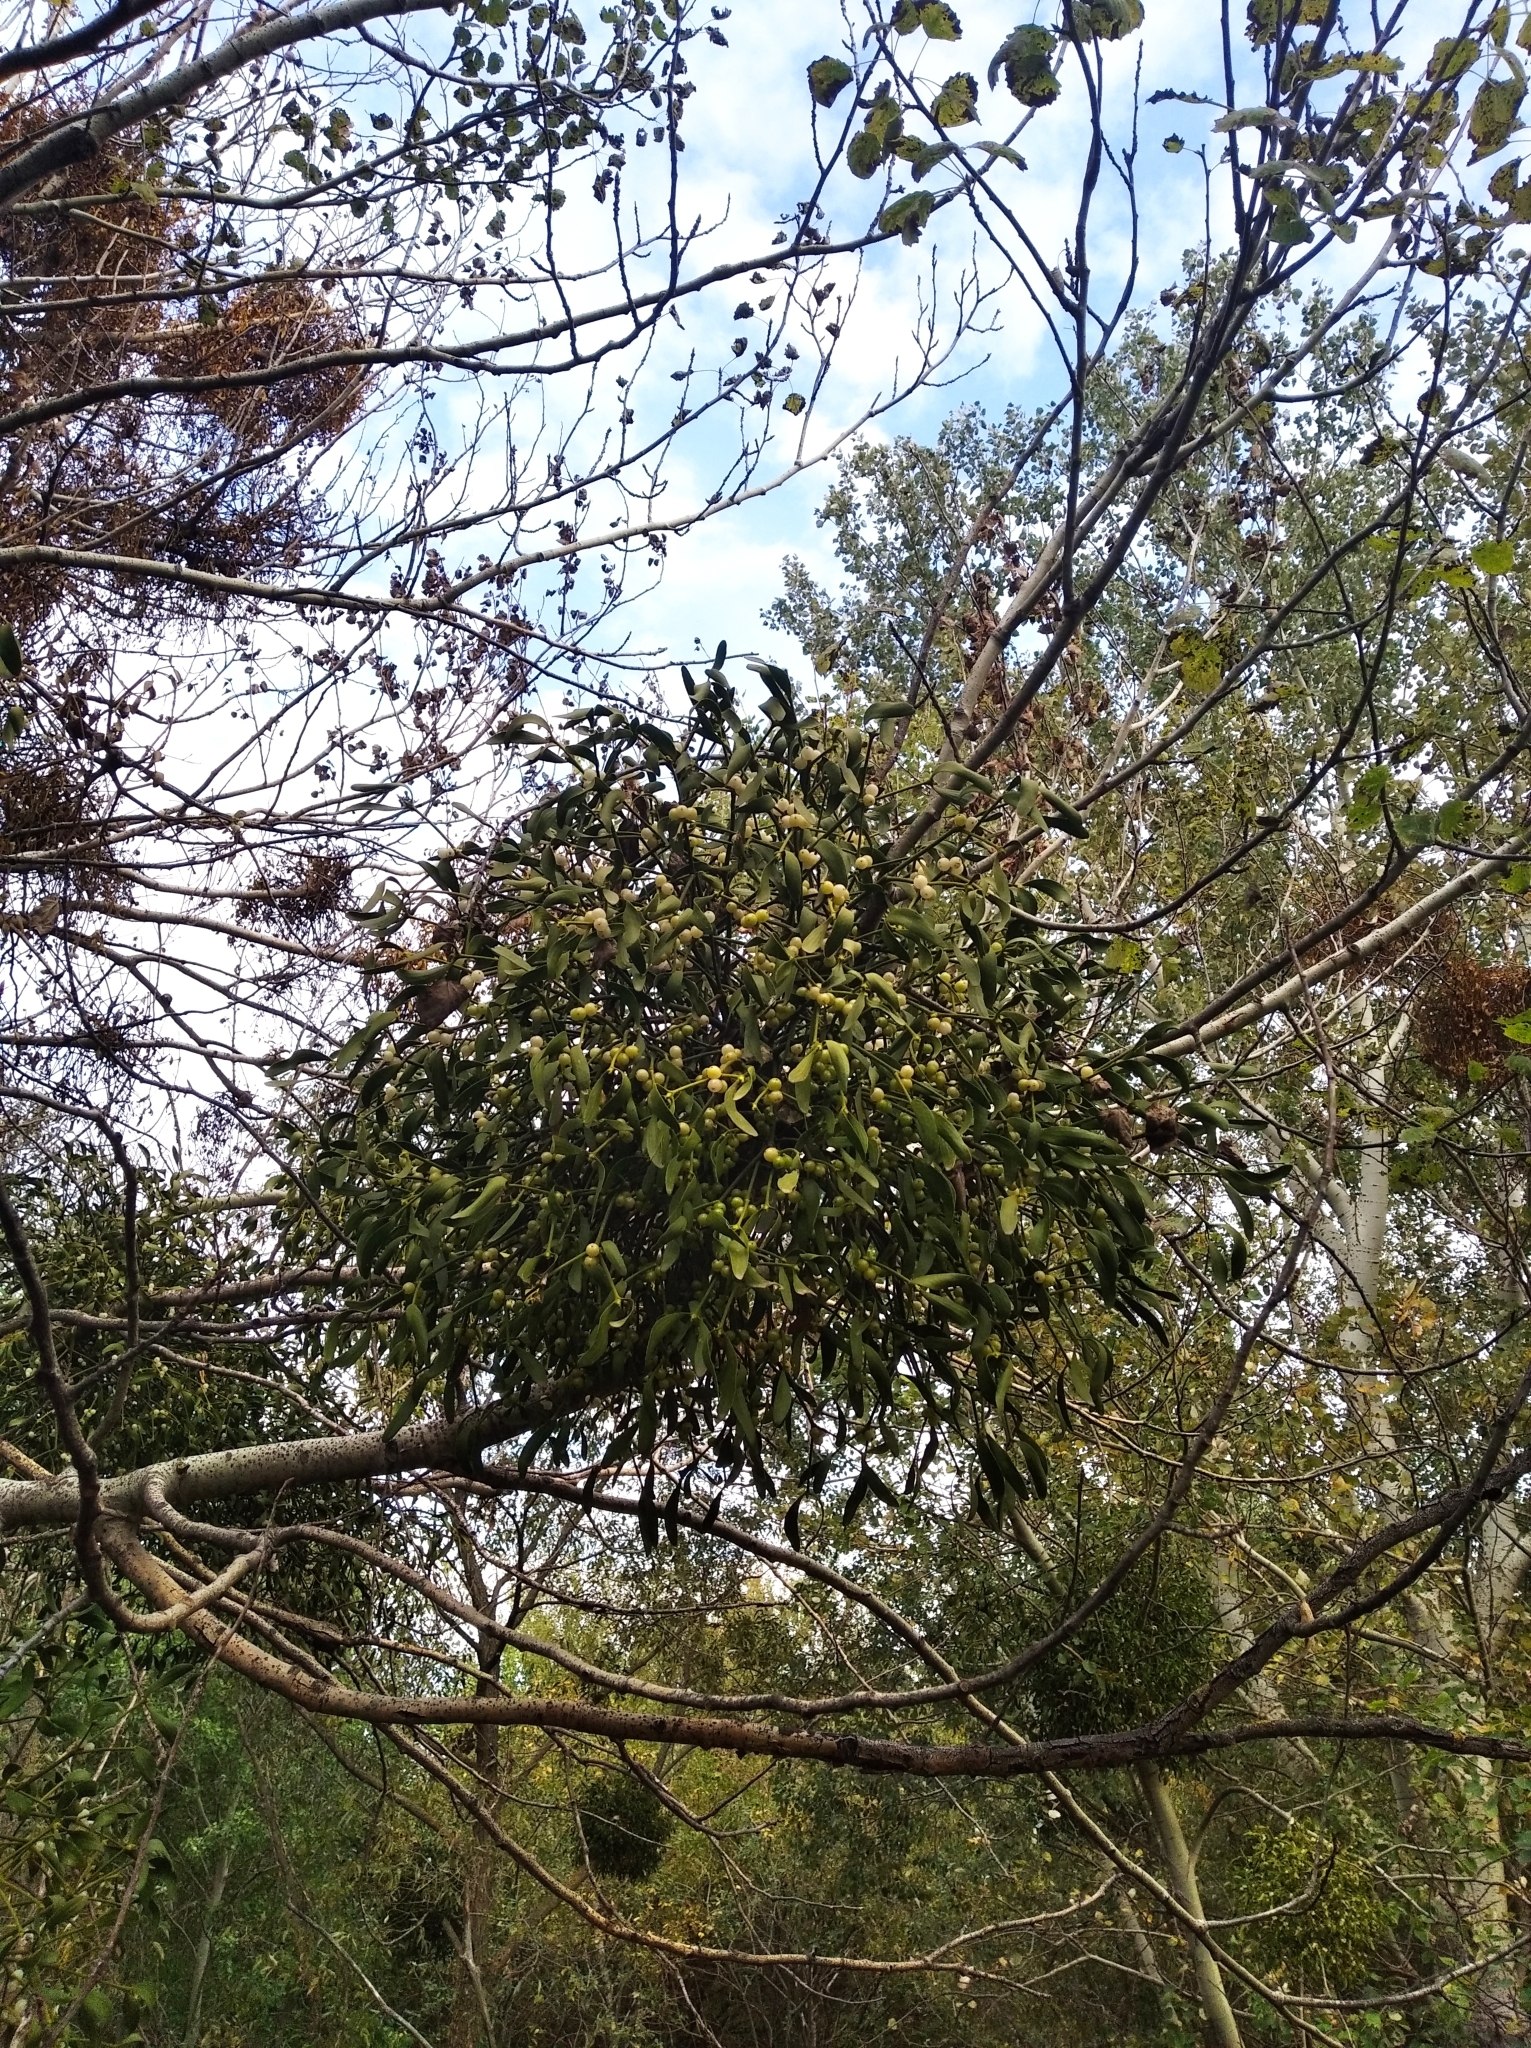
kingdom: Plantae
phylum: Tracheophyta
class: Magnoliopsida
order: Santalales
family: Viscaceae
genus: Viscum
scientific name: Viscum album
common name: Mistletoe
